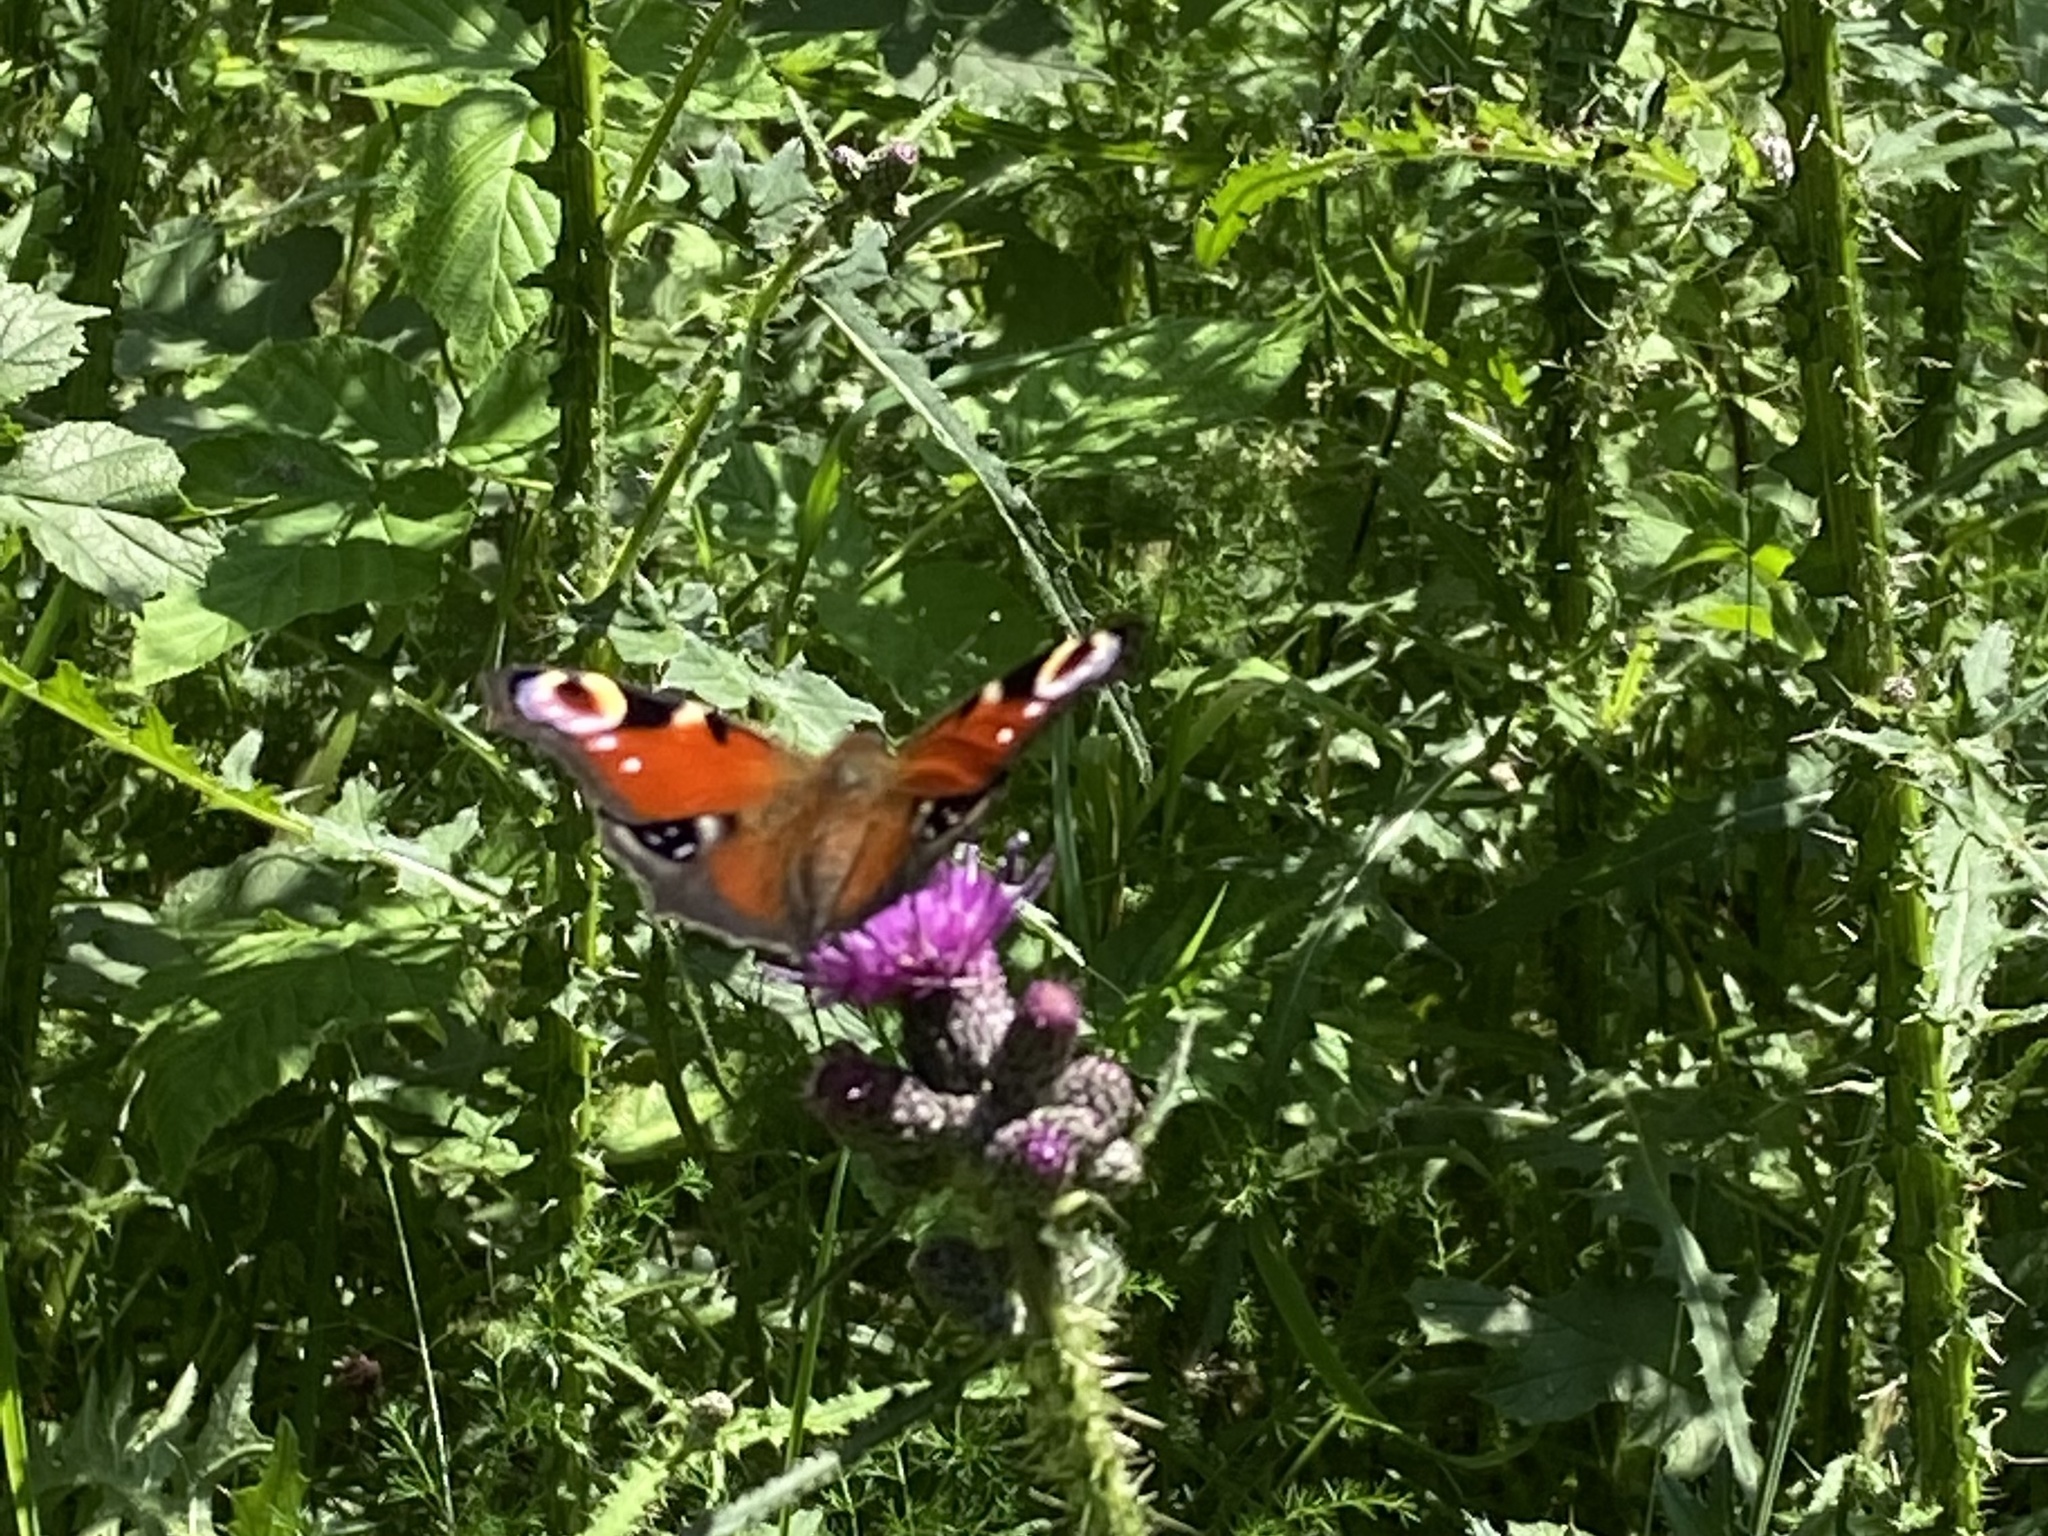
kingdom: Animalia
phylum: Arthropoda
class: Insecta
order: Lepidoptera
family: Nymphalidae
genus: Aglais
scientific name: Aglais io
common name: Peacock
